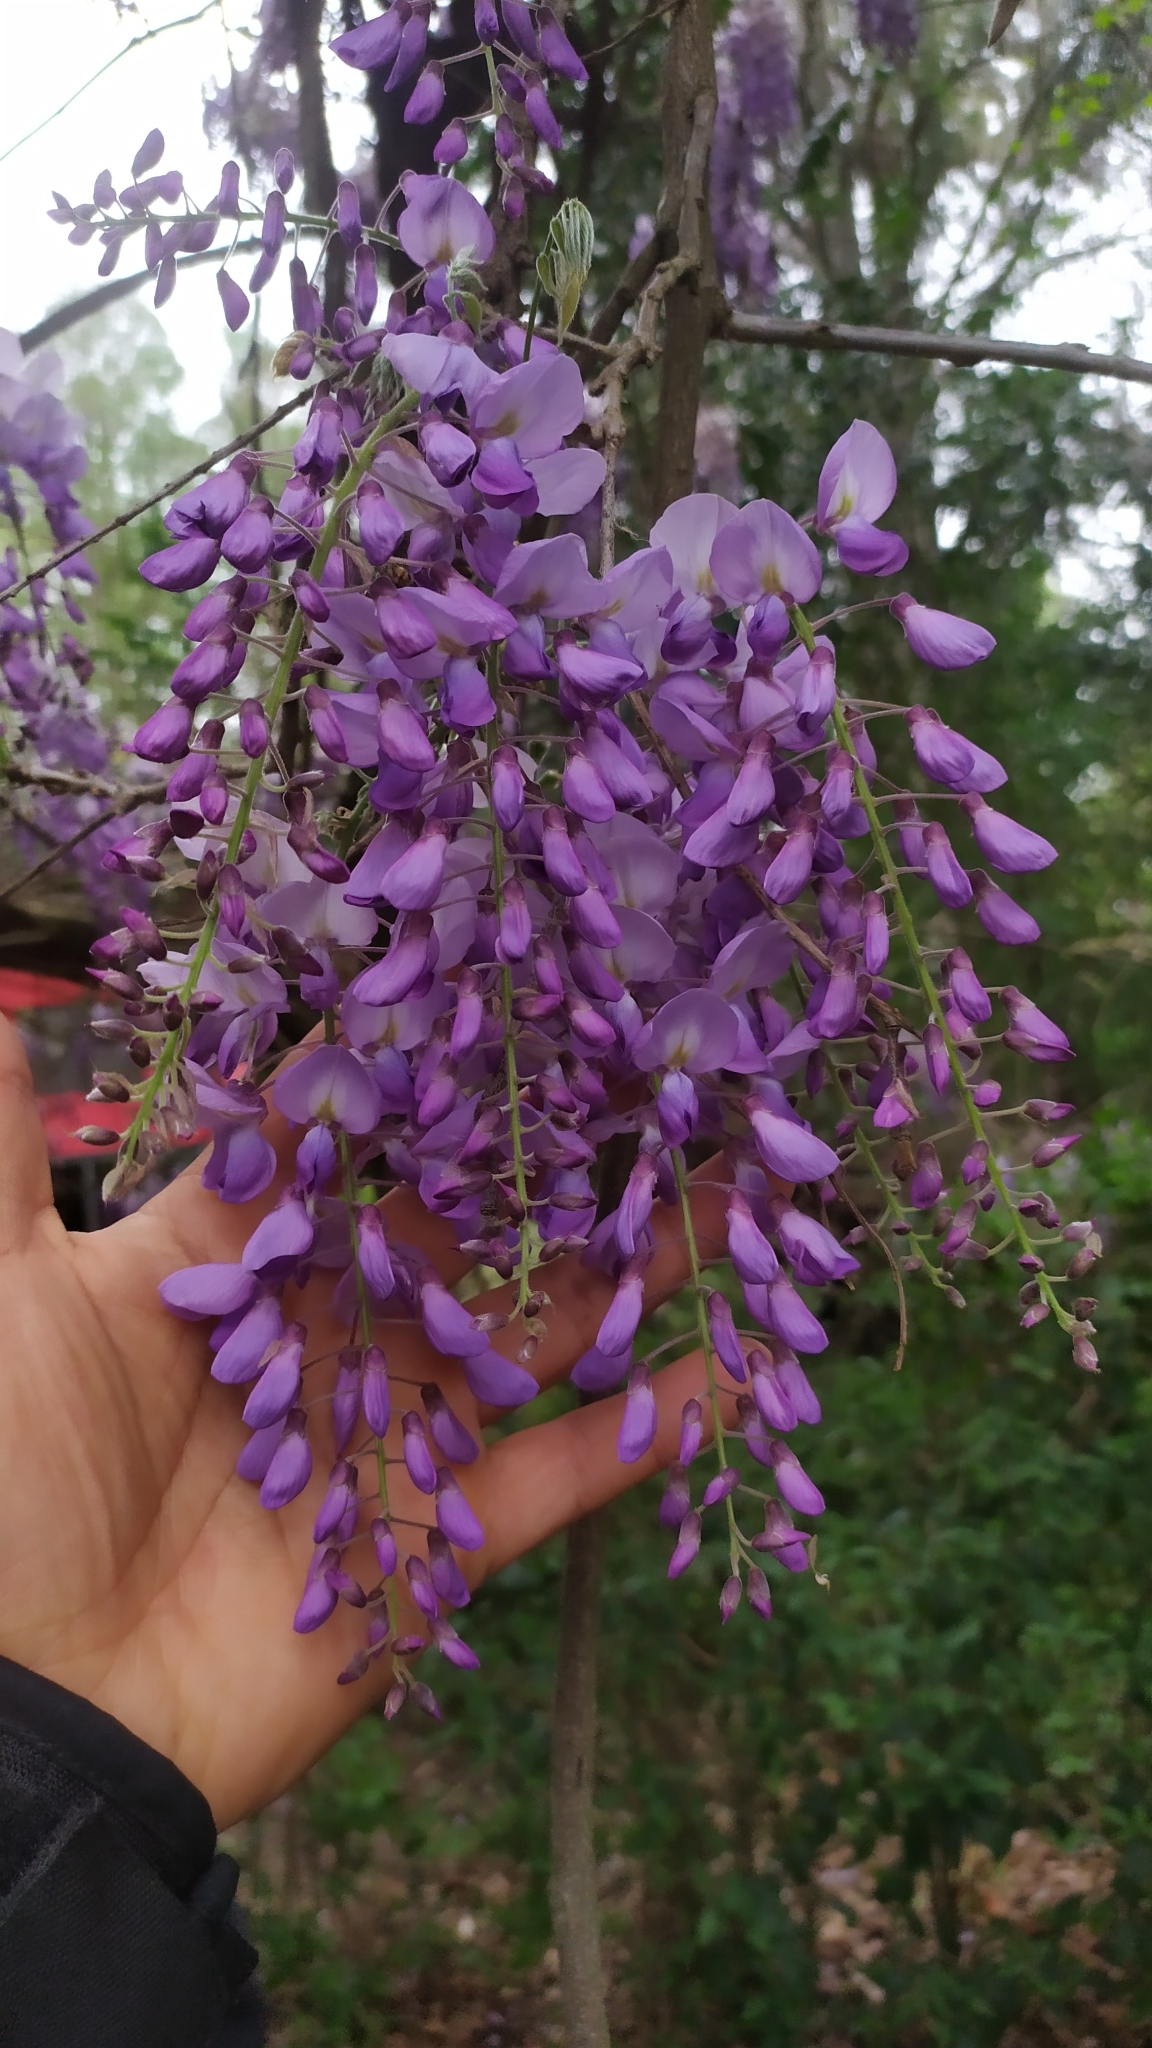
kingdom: Plantae
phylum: Tracheophyta
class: Magnoliopsida
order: Fabales
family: Fabaceae
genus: Wisteria
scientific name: Wisteria sinensis
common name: Chinese wisteria
